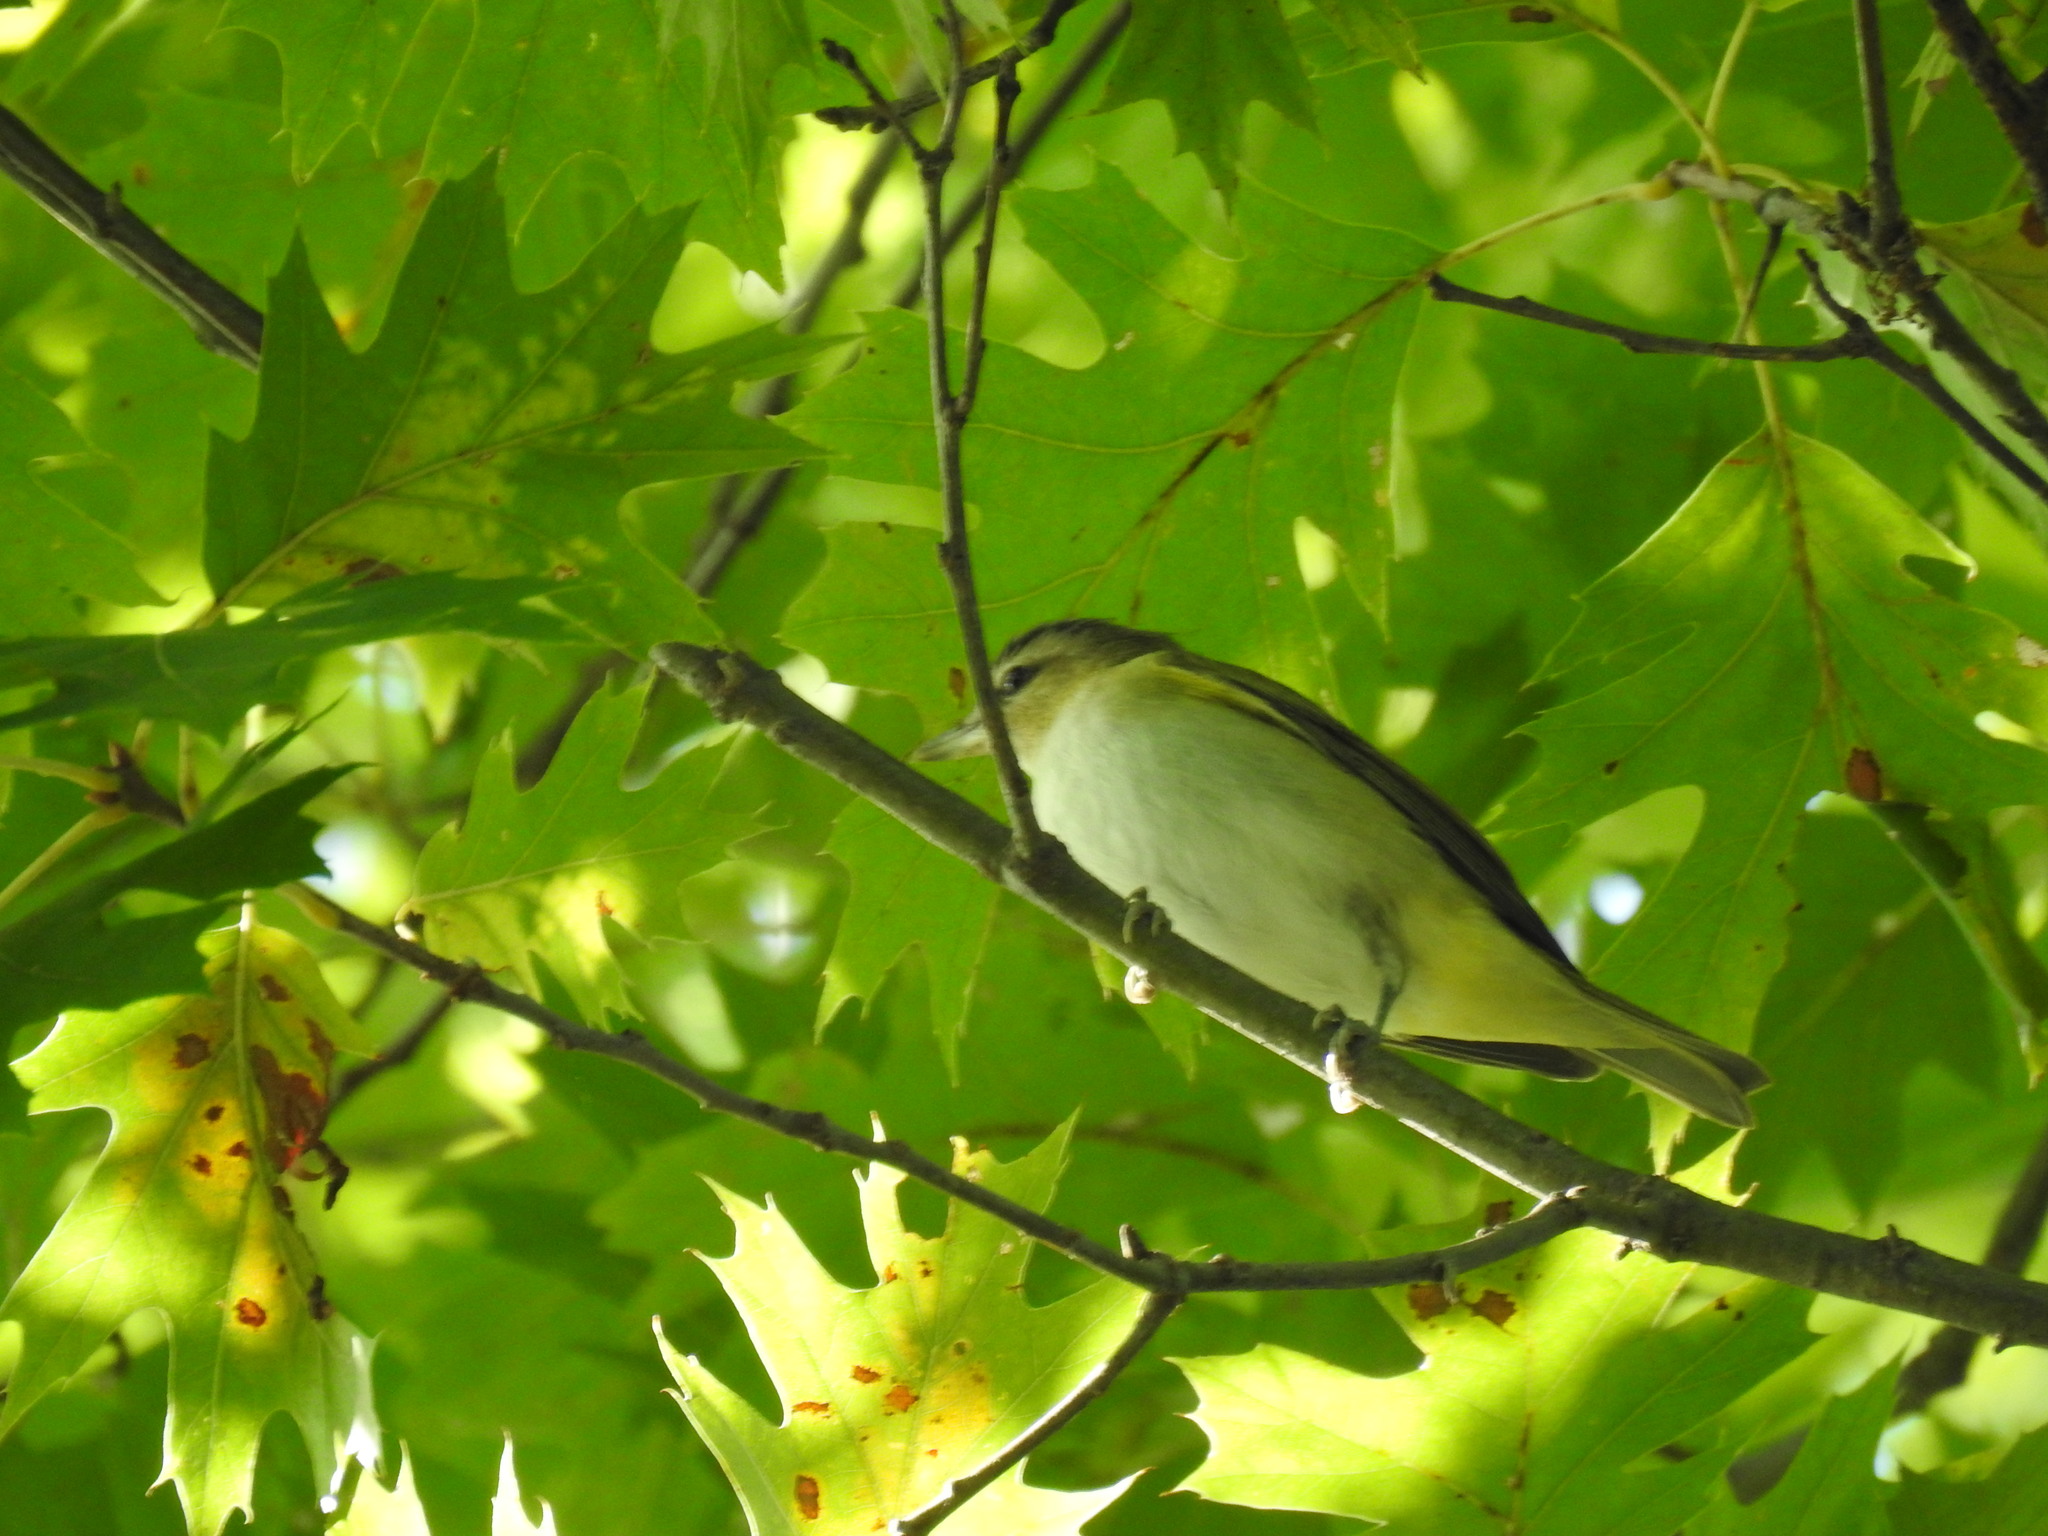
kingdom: Animalia
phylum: Chordata
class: Aves
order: Passeriformes
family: Vireonidae
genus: Vireo
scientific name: Vireo olivaceus
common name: Red-eyed vireo
